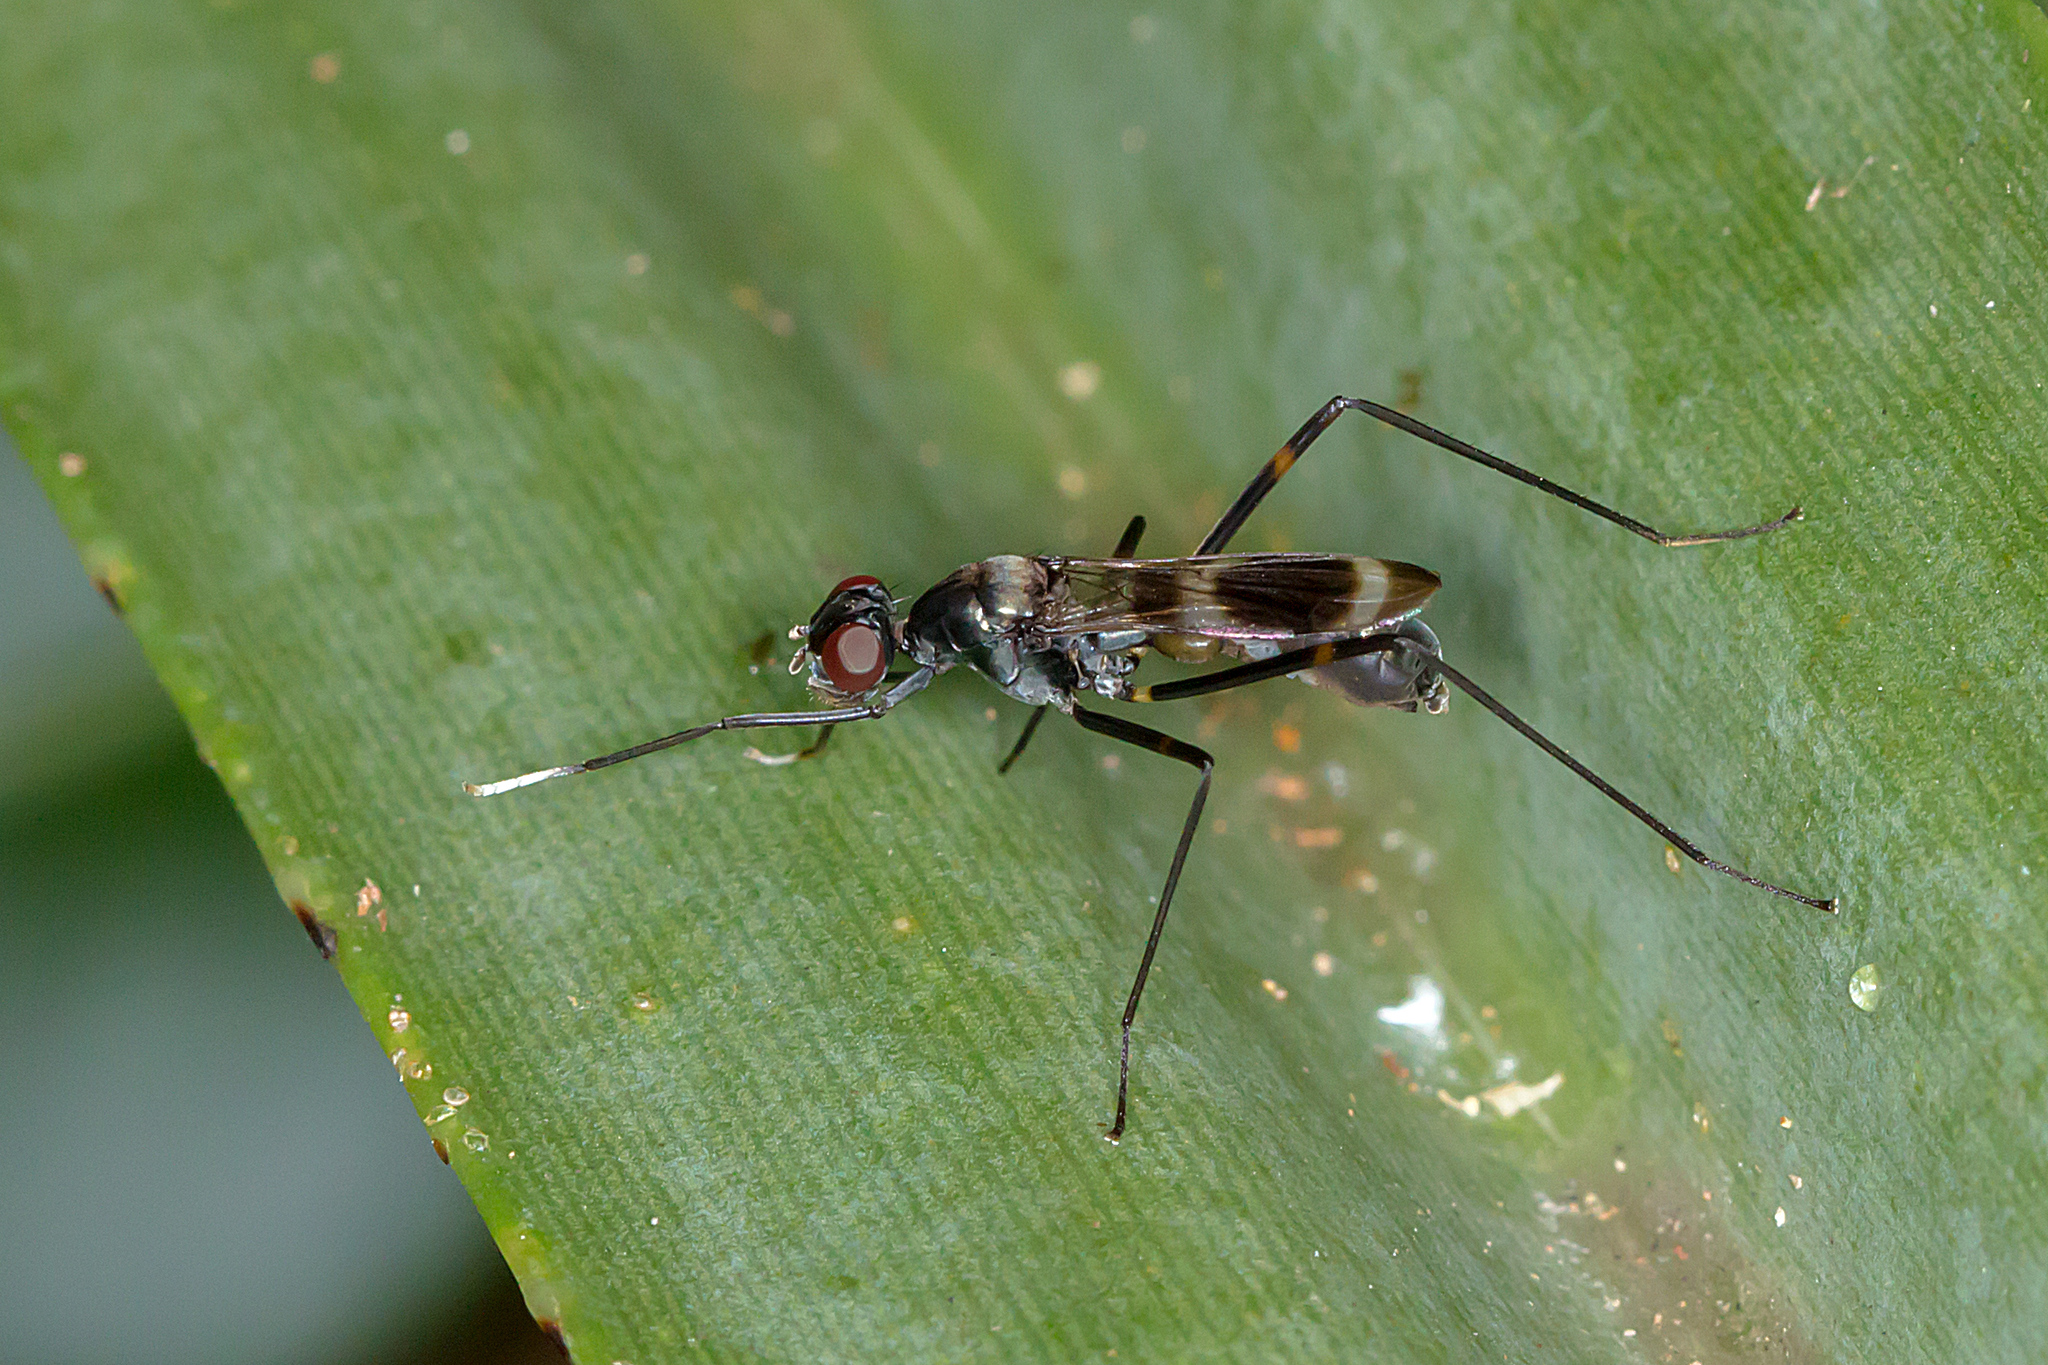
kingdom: Animalia
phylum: Arthropoda
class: Insecta
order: Diptera
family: Micropezidae
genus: Mimegralla
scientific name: Mimegralla australica
